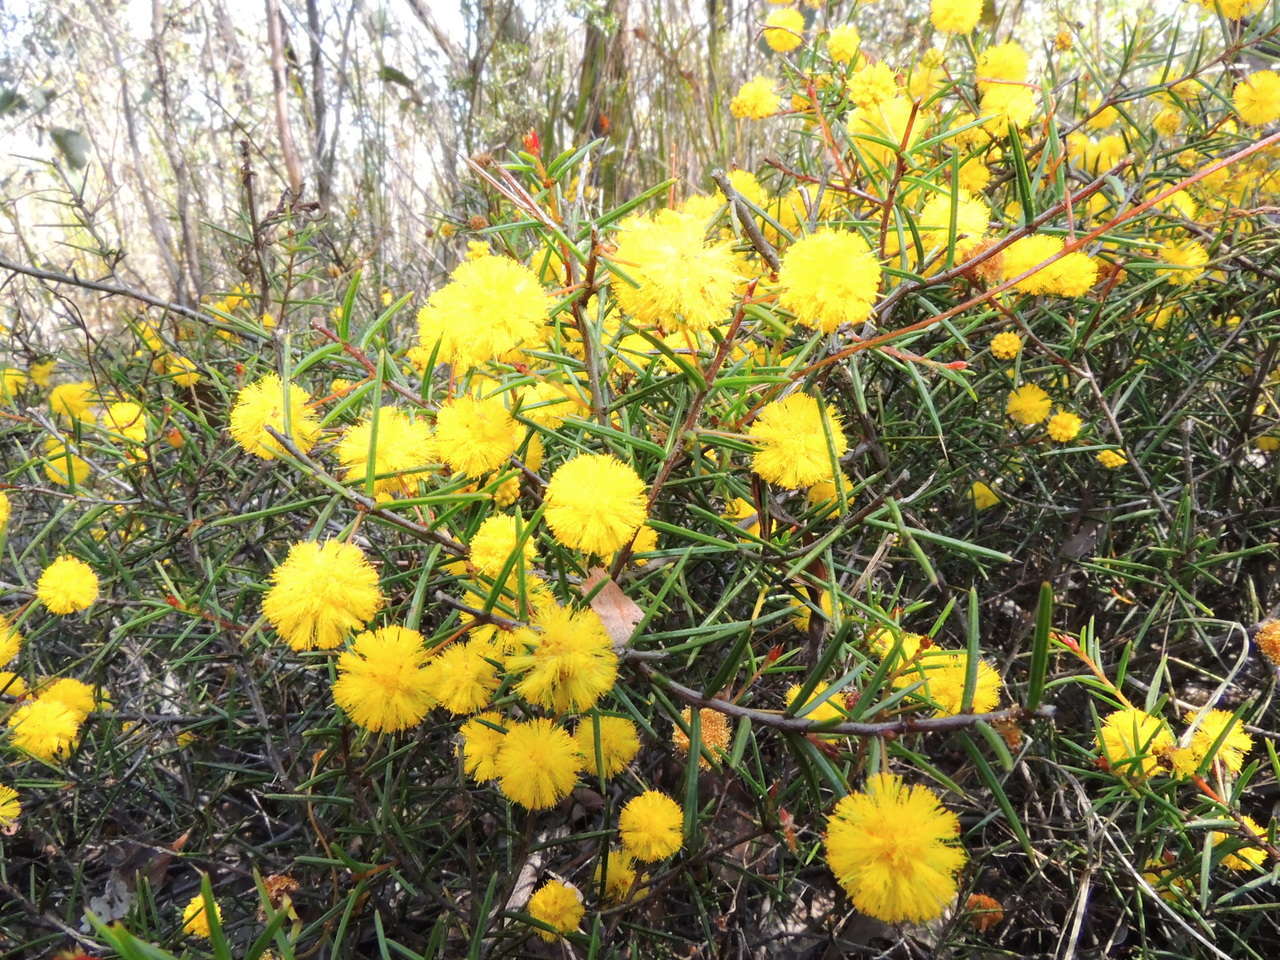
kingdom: Plantae
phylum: Tracheophyta
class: Magnoliopsida
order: Fabales
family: Fabaceae
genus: Acacia
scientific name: Acacia brownii
